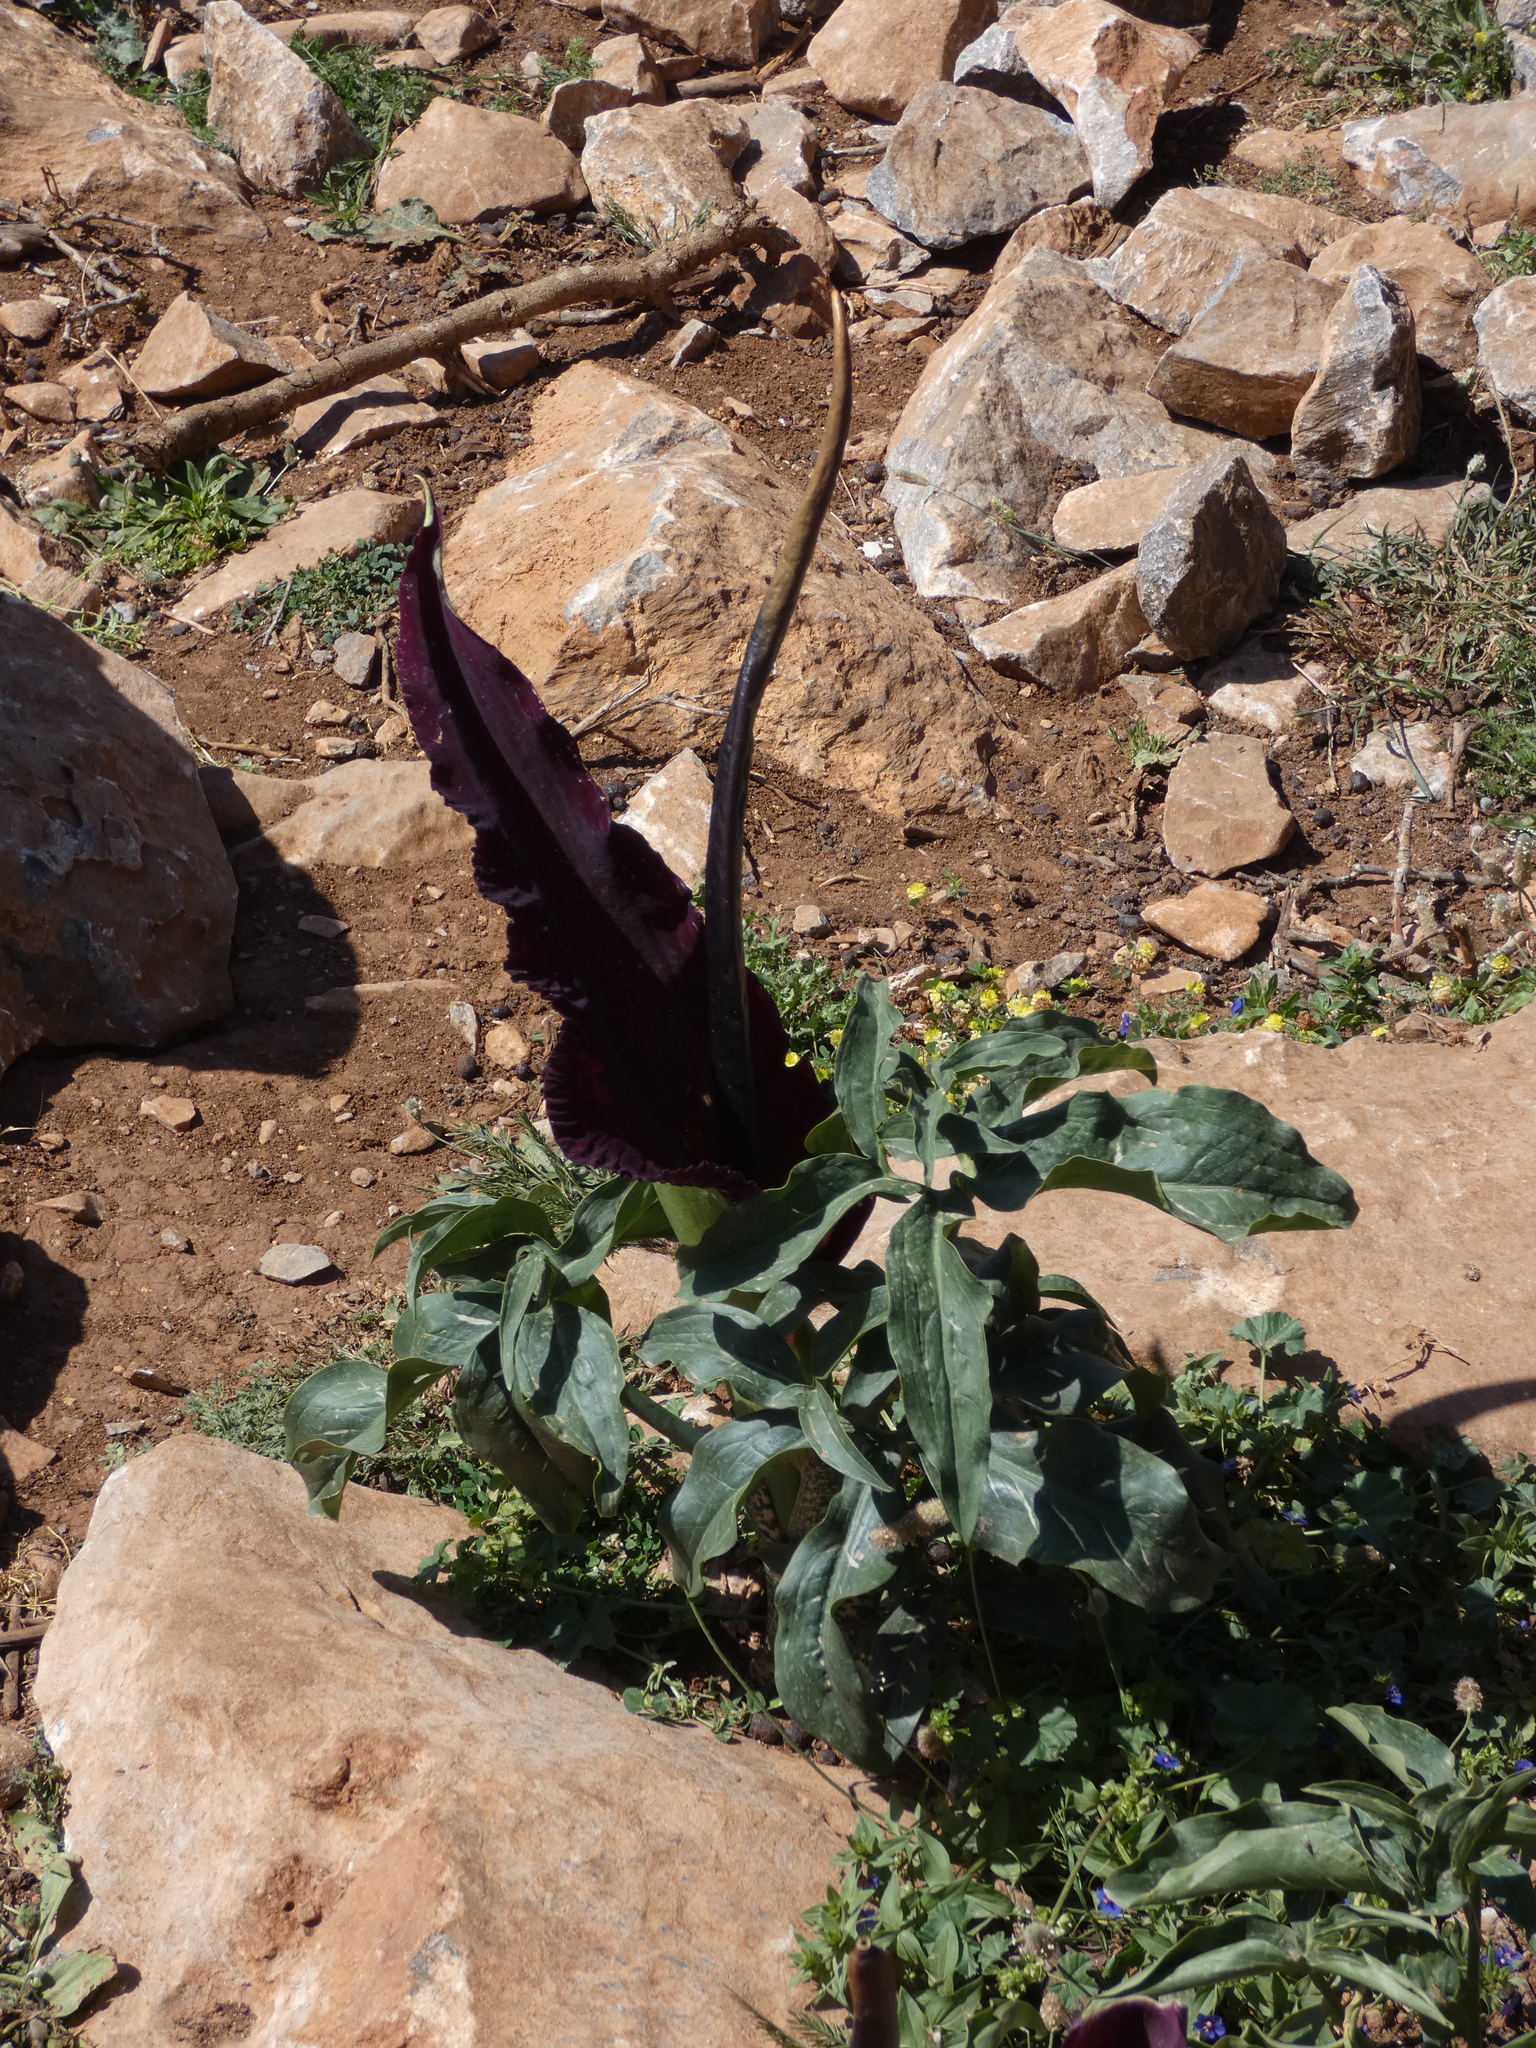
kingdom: Plantae
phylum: Tracheophyta
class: Liliopsida
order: Alismatales
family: Araceae
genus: Dracunculus
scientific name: Dracunculus vulgaris
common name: Dragon arum
